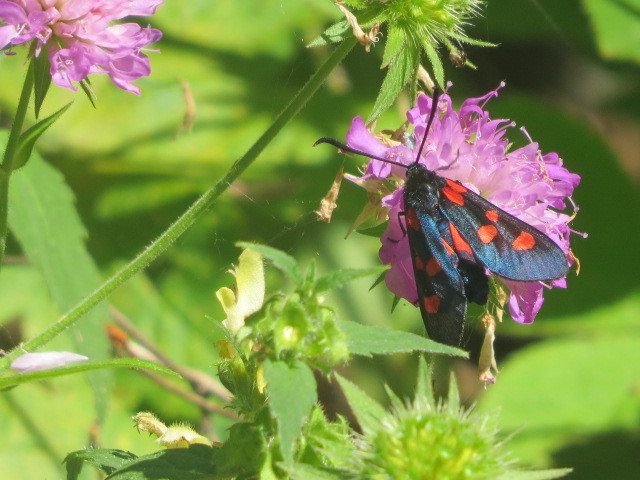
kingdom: Animalia
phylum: Arthropoda
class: Insecta
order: Lepidoptera
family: Zygaenidae
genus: Zygaena
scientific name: Zygaena lonicerae
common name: Narrow-bordered five-spot burnet
